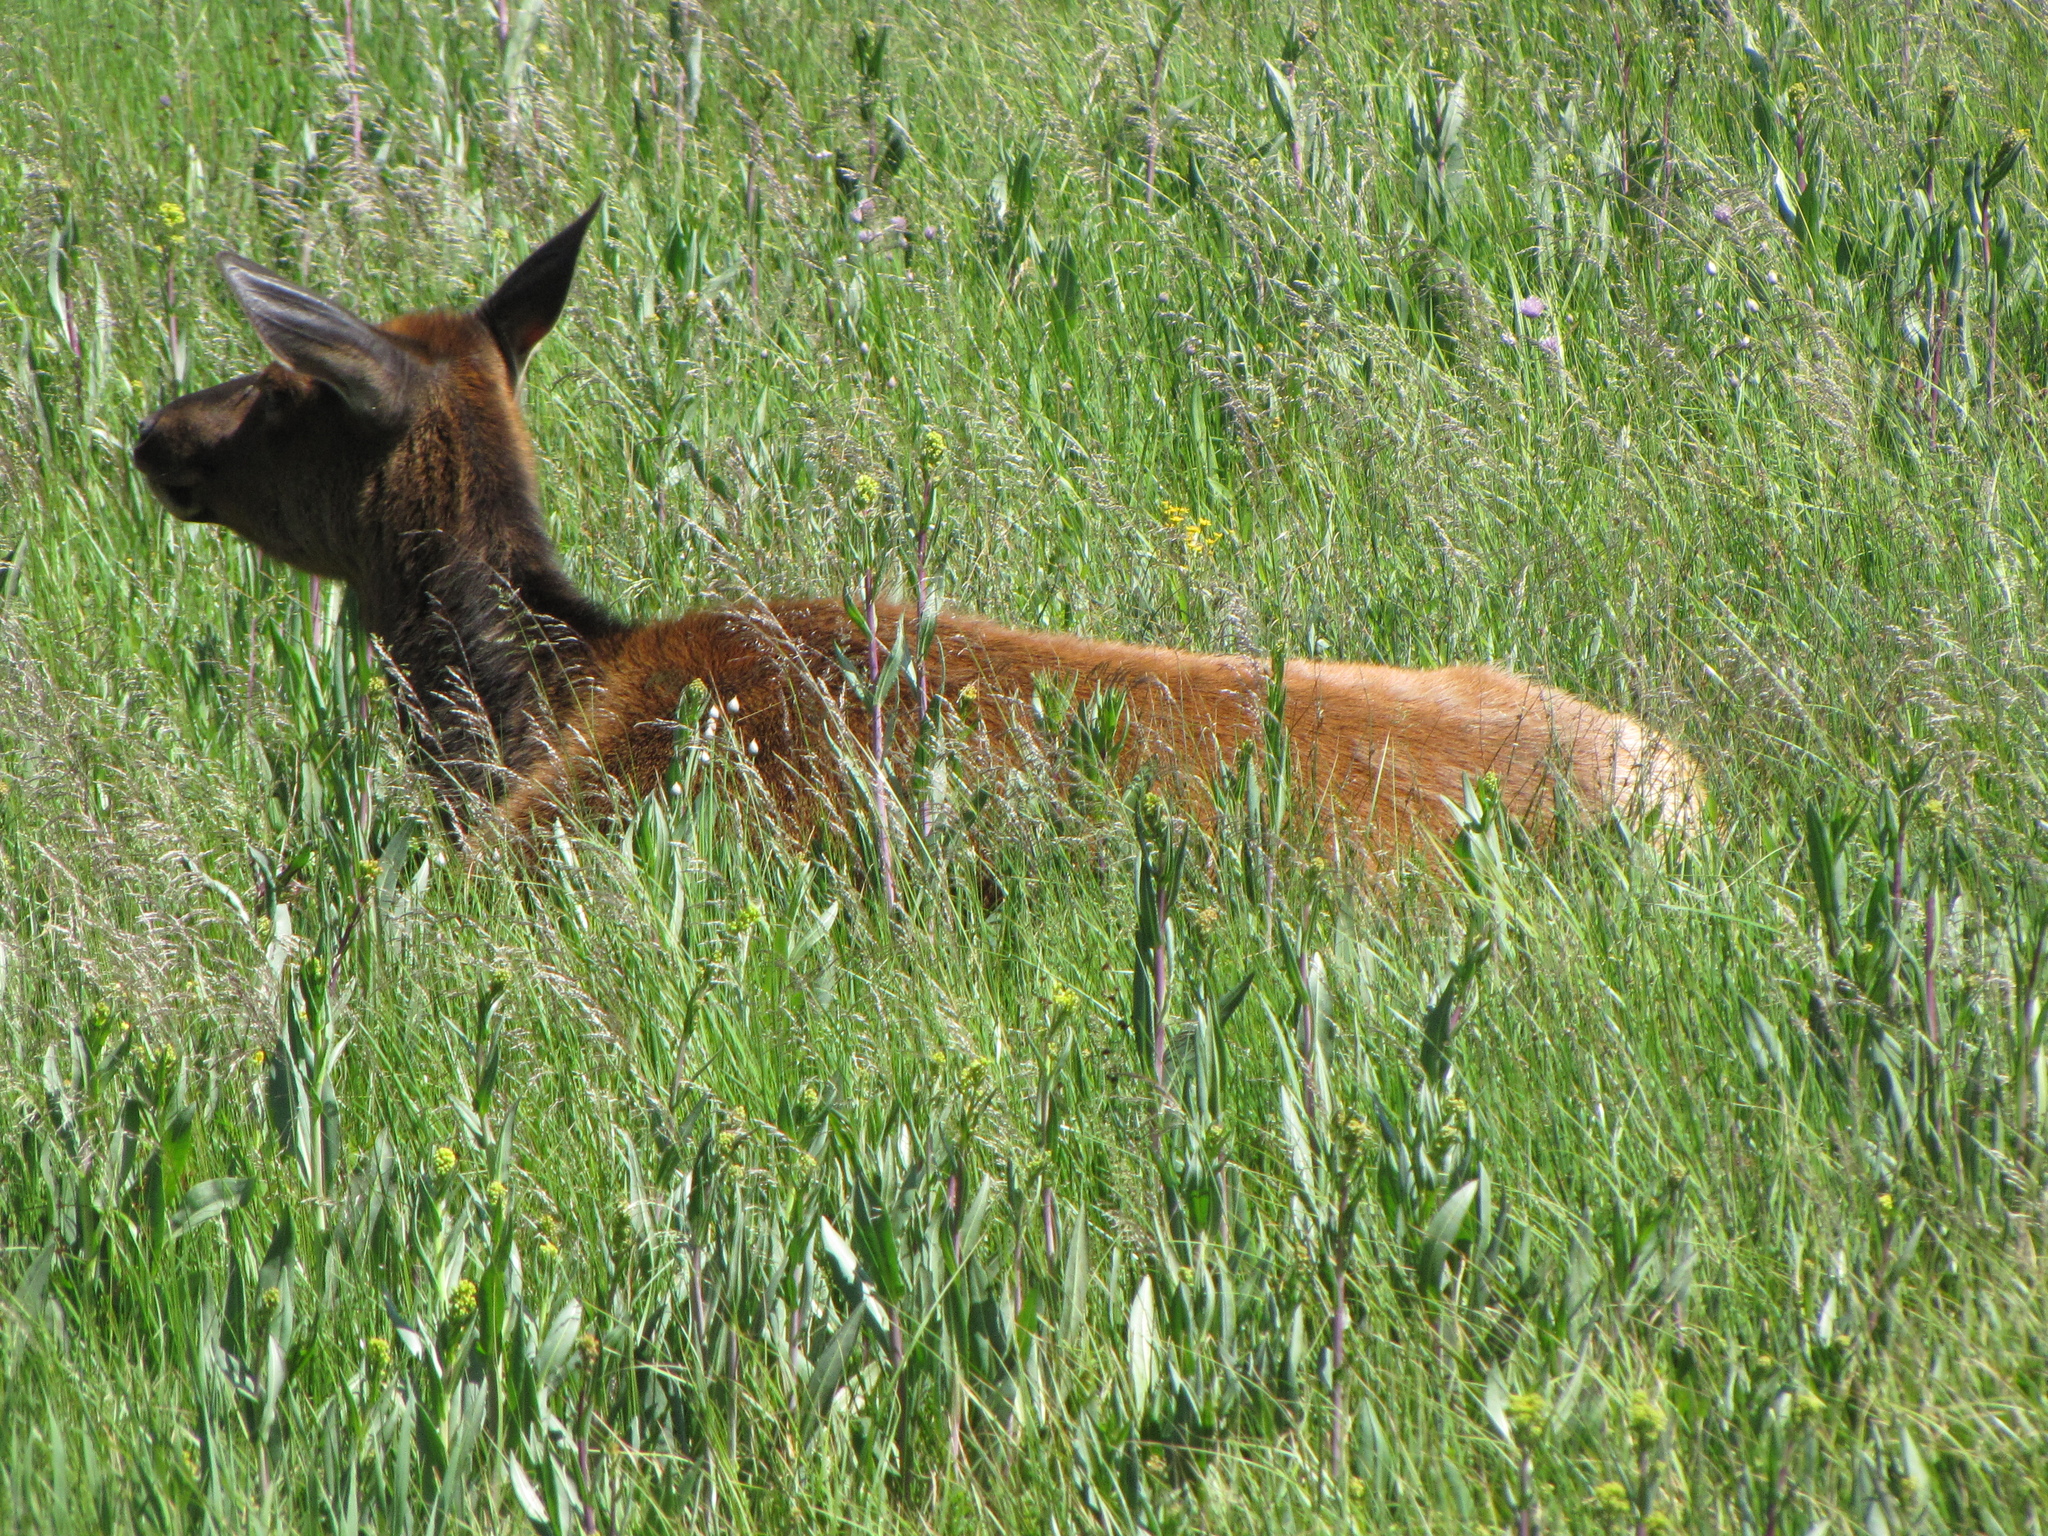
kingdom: Animalia
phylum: Chordata
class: Mammalia
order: Artiodactyla
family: Cervidae
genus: Cervus
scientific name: Cervus elaphus
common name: Red deer
